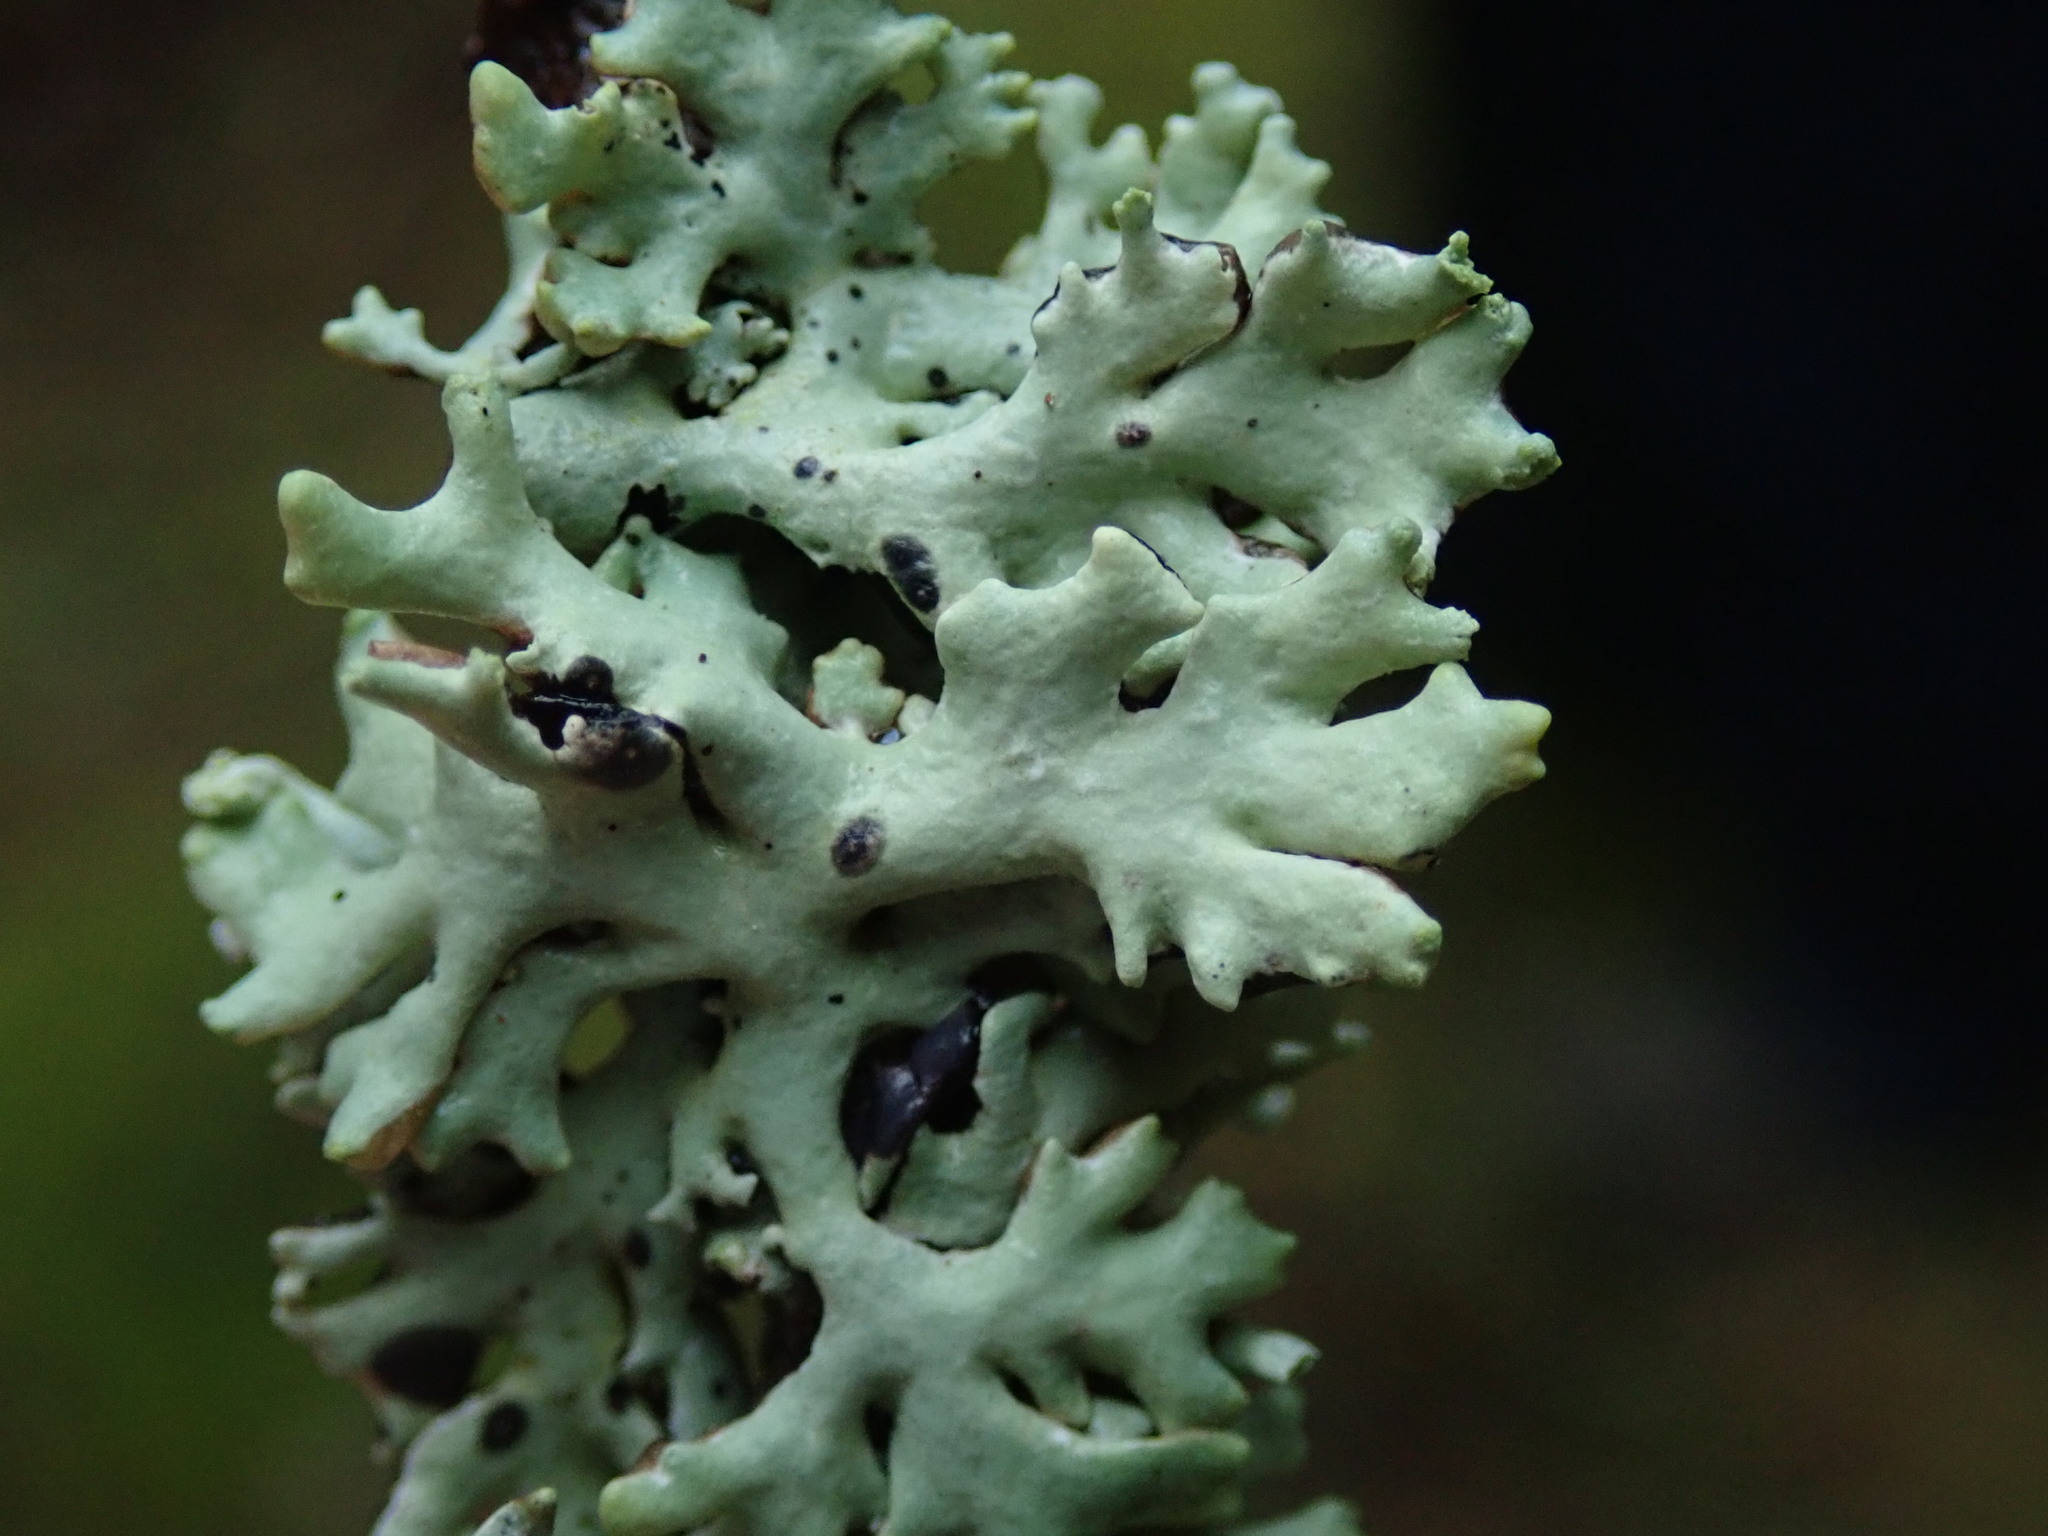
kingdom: Fungi
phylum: Ascomycota
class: Lecanoromycetes
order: Lecanorales
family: Parmeliaceae
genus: Hypogymnia
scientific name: Hypogymnia physodes
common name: Dark crottle
